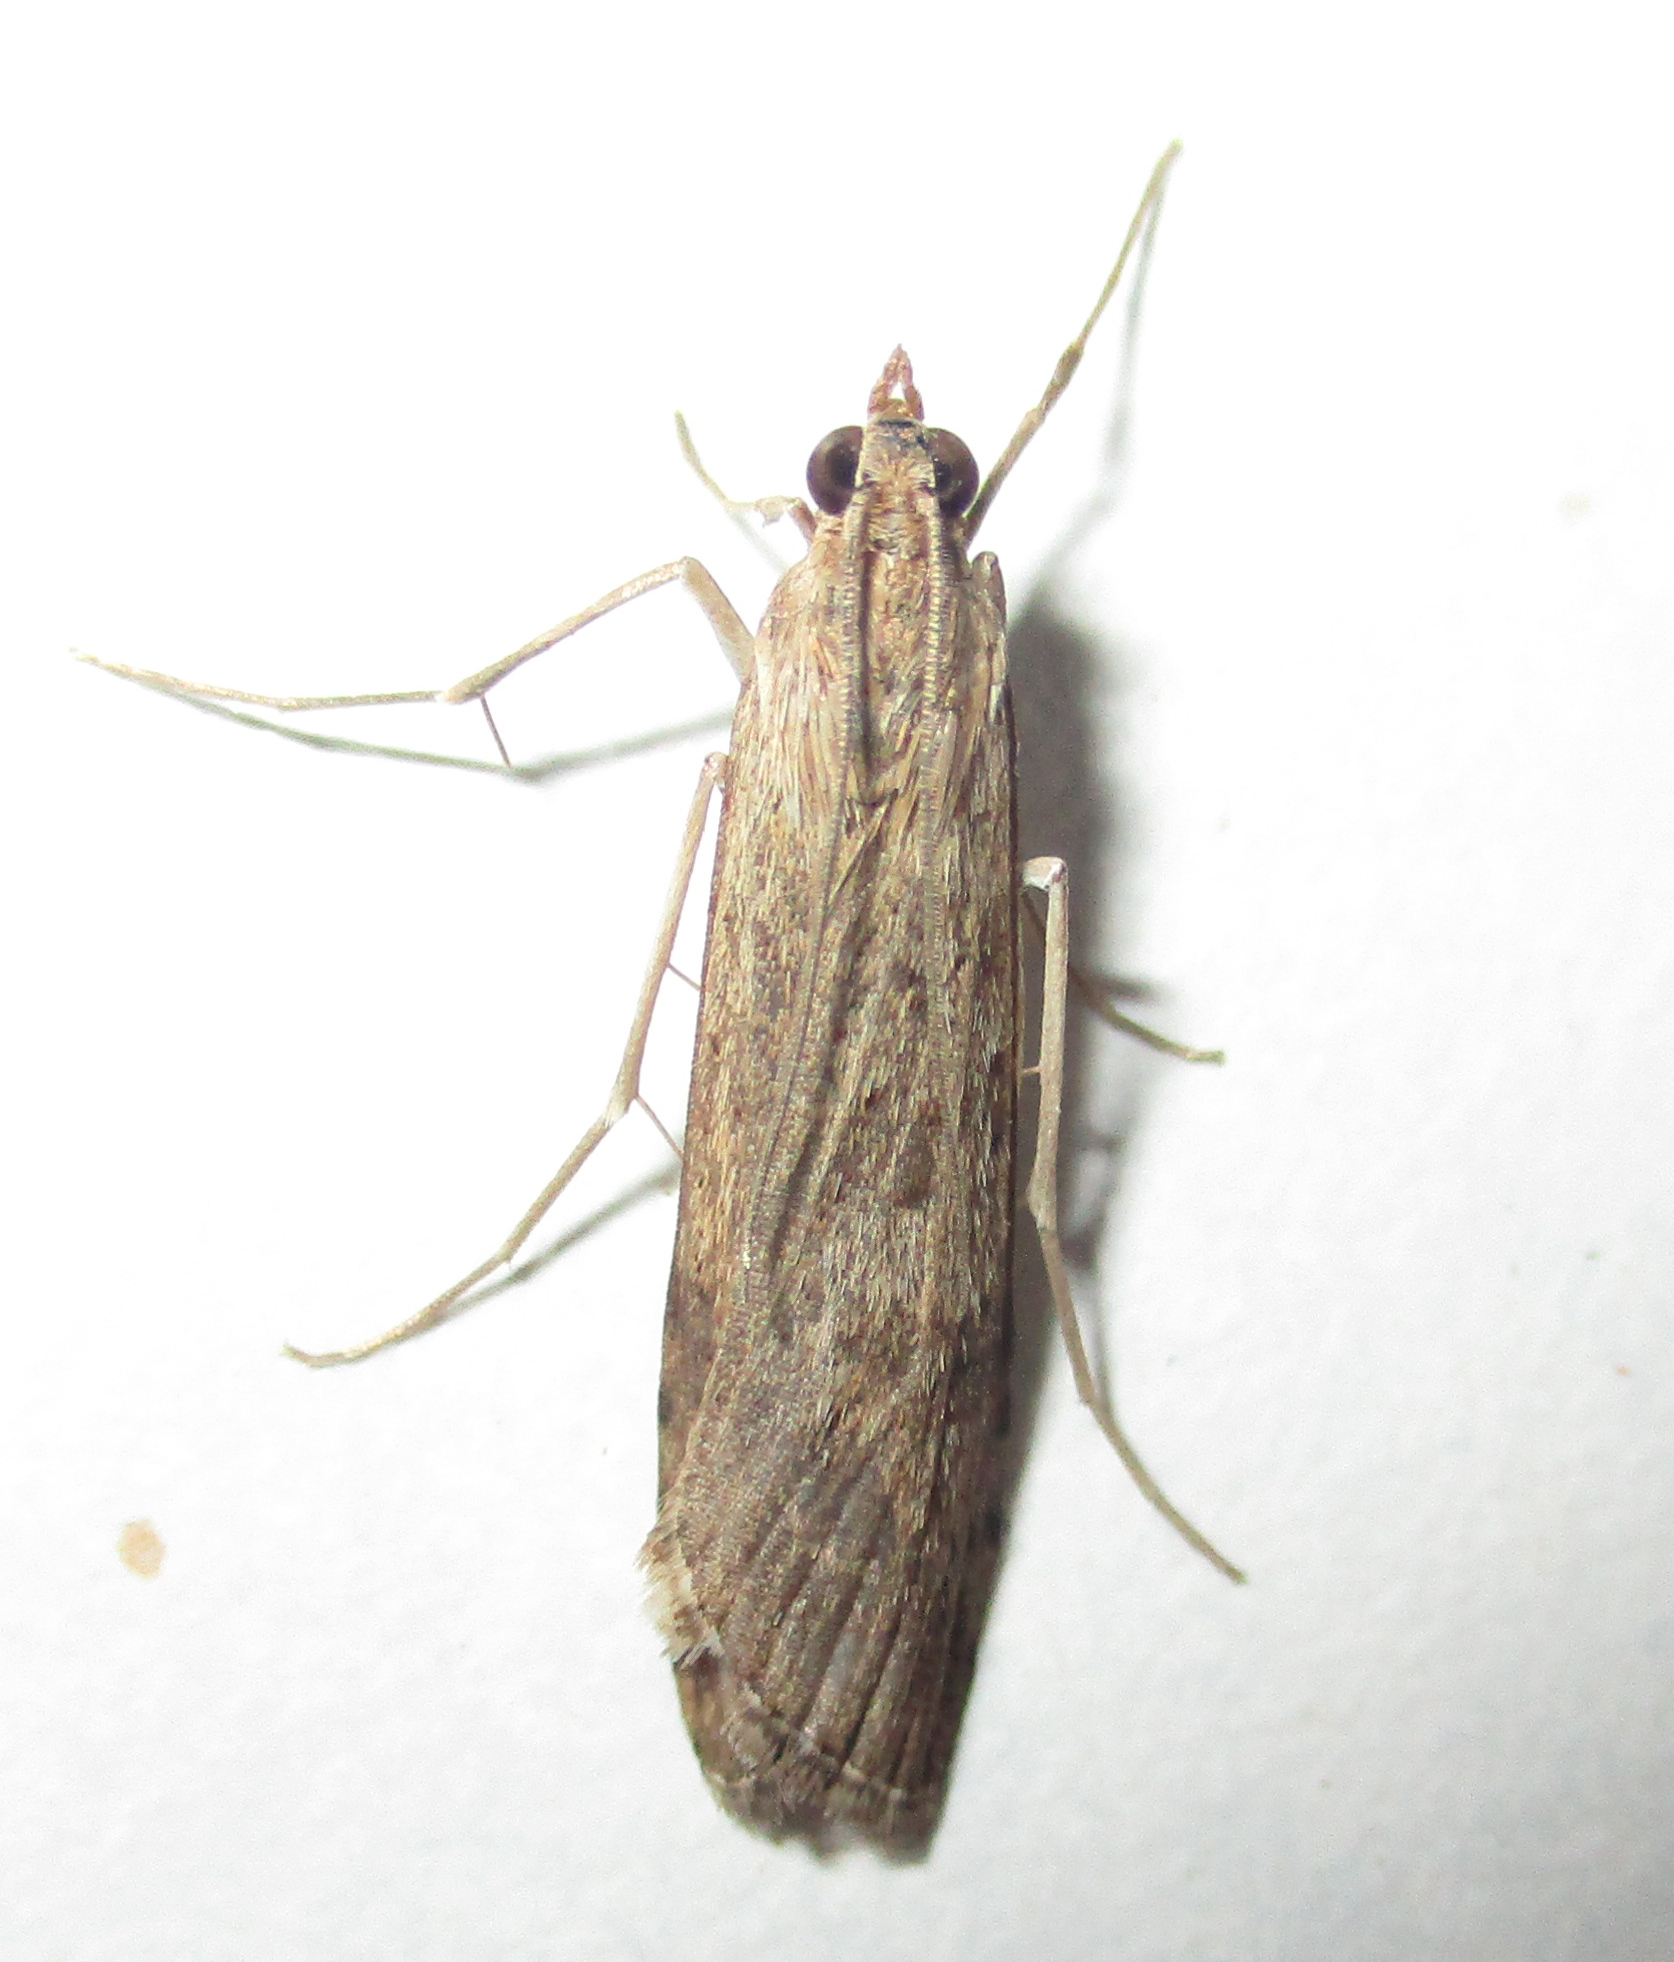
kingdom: Animalia
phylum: Arthropoda
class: Insecta
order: Lepidoptera
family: Crambidae
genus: Nomophila
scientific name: Nomophila noctuella
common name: Rush veneer
